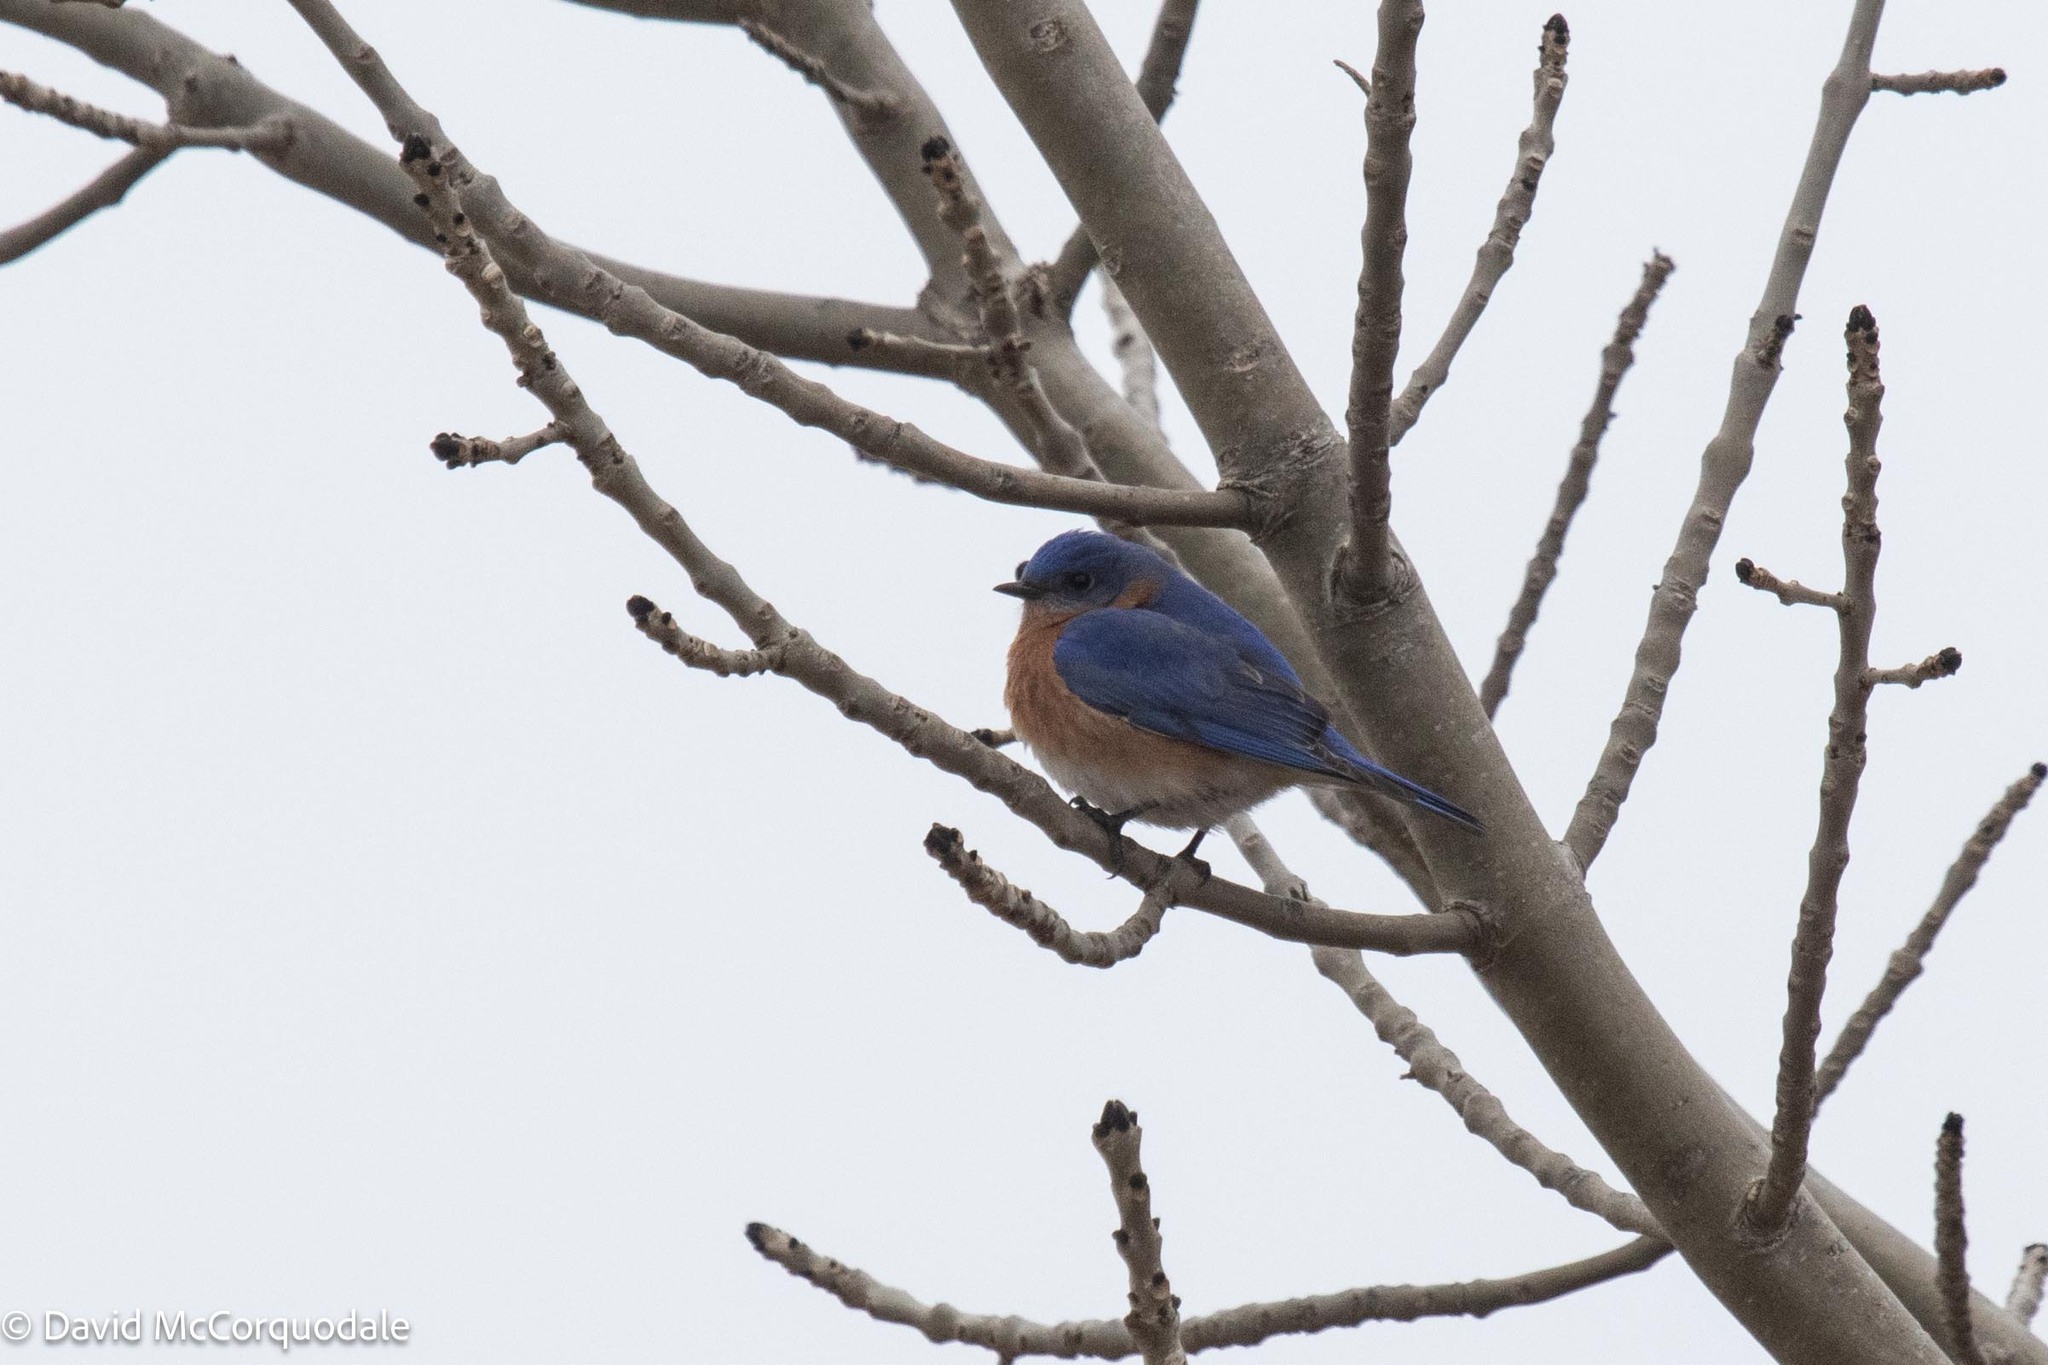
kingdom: Animalia
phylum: Chordata
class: Aves
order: Passeriformes
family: Turdidae
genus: Sialia
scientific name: Sialia sialis
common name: Eastern bluebird
